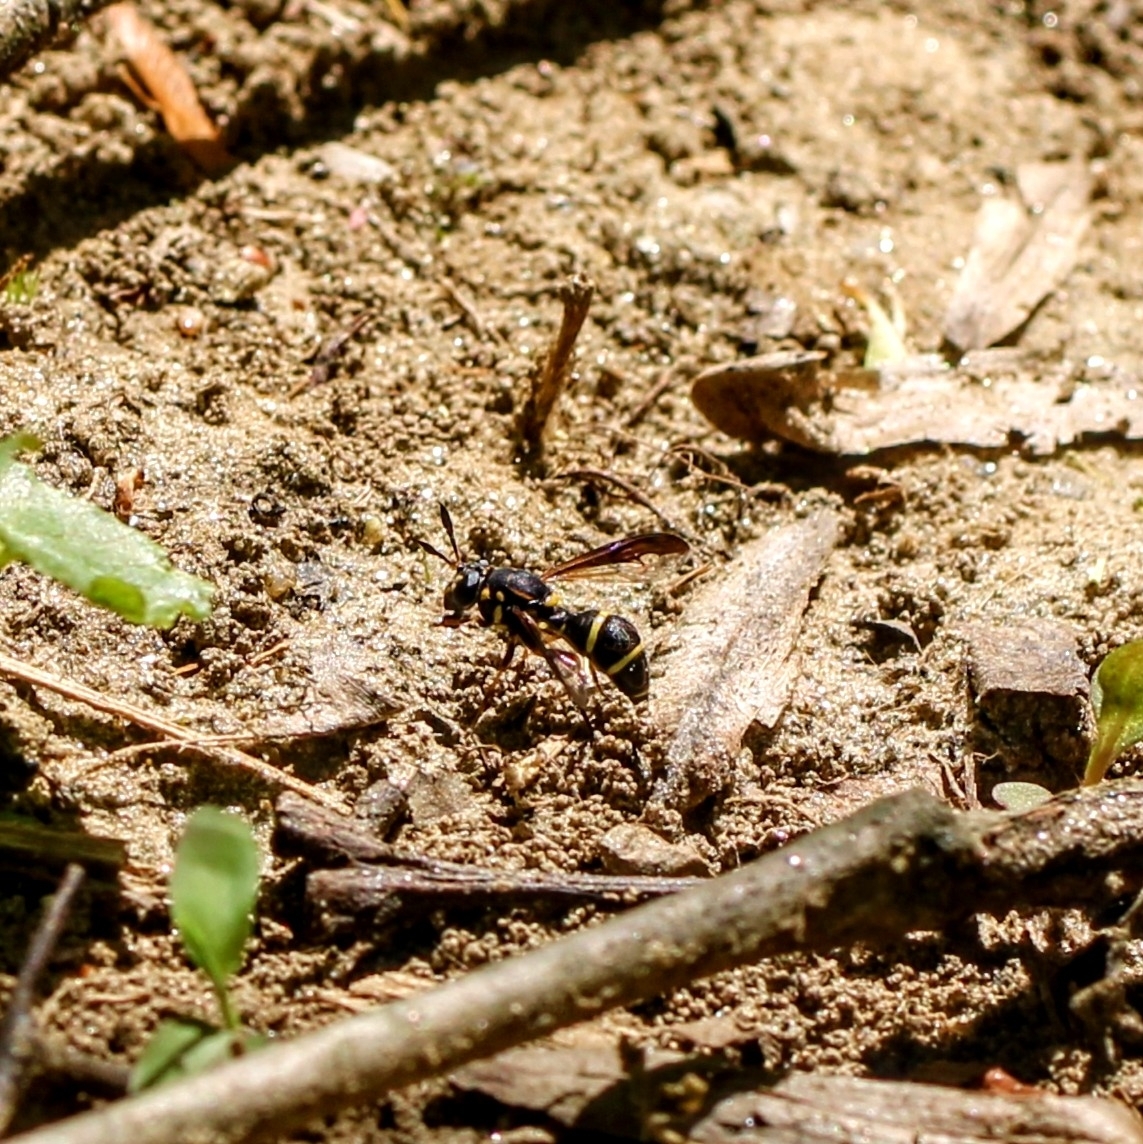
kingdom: Animalia
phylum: Arthropoda
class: Insecta
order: Diptera
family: Syrphidae
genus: Sphiximorpha
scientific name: Sphiximorpha willistoni
